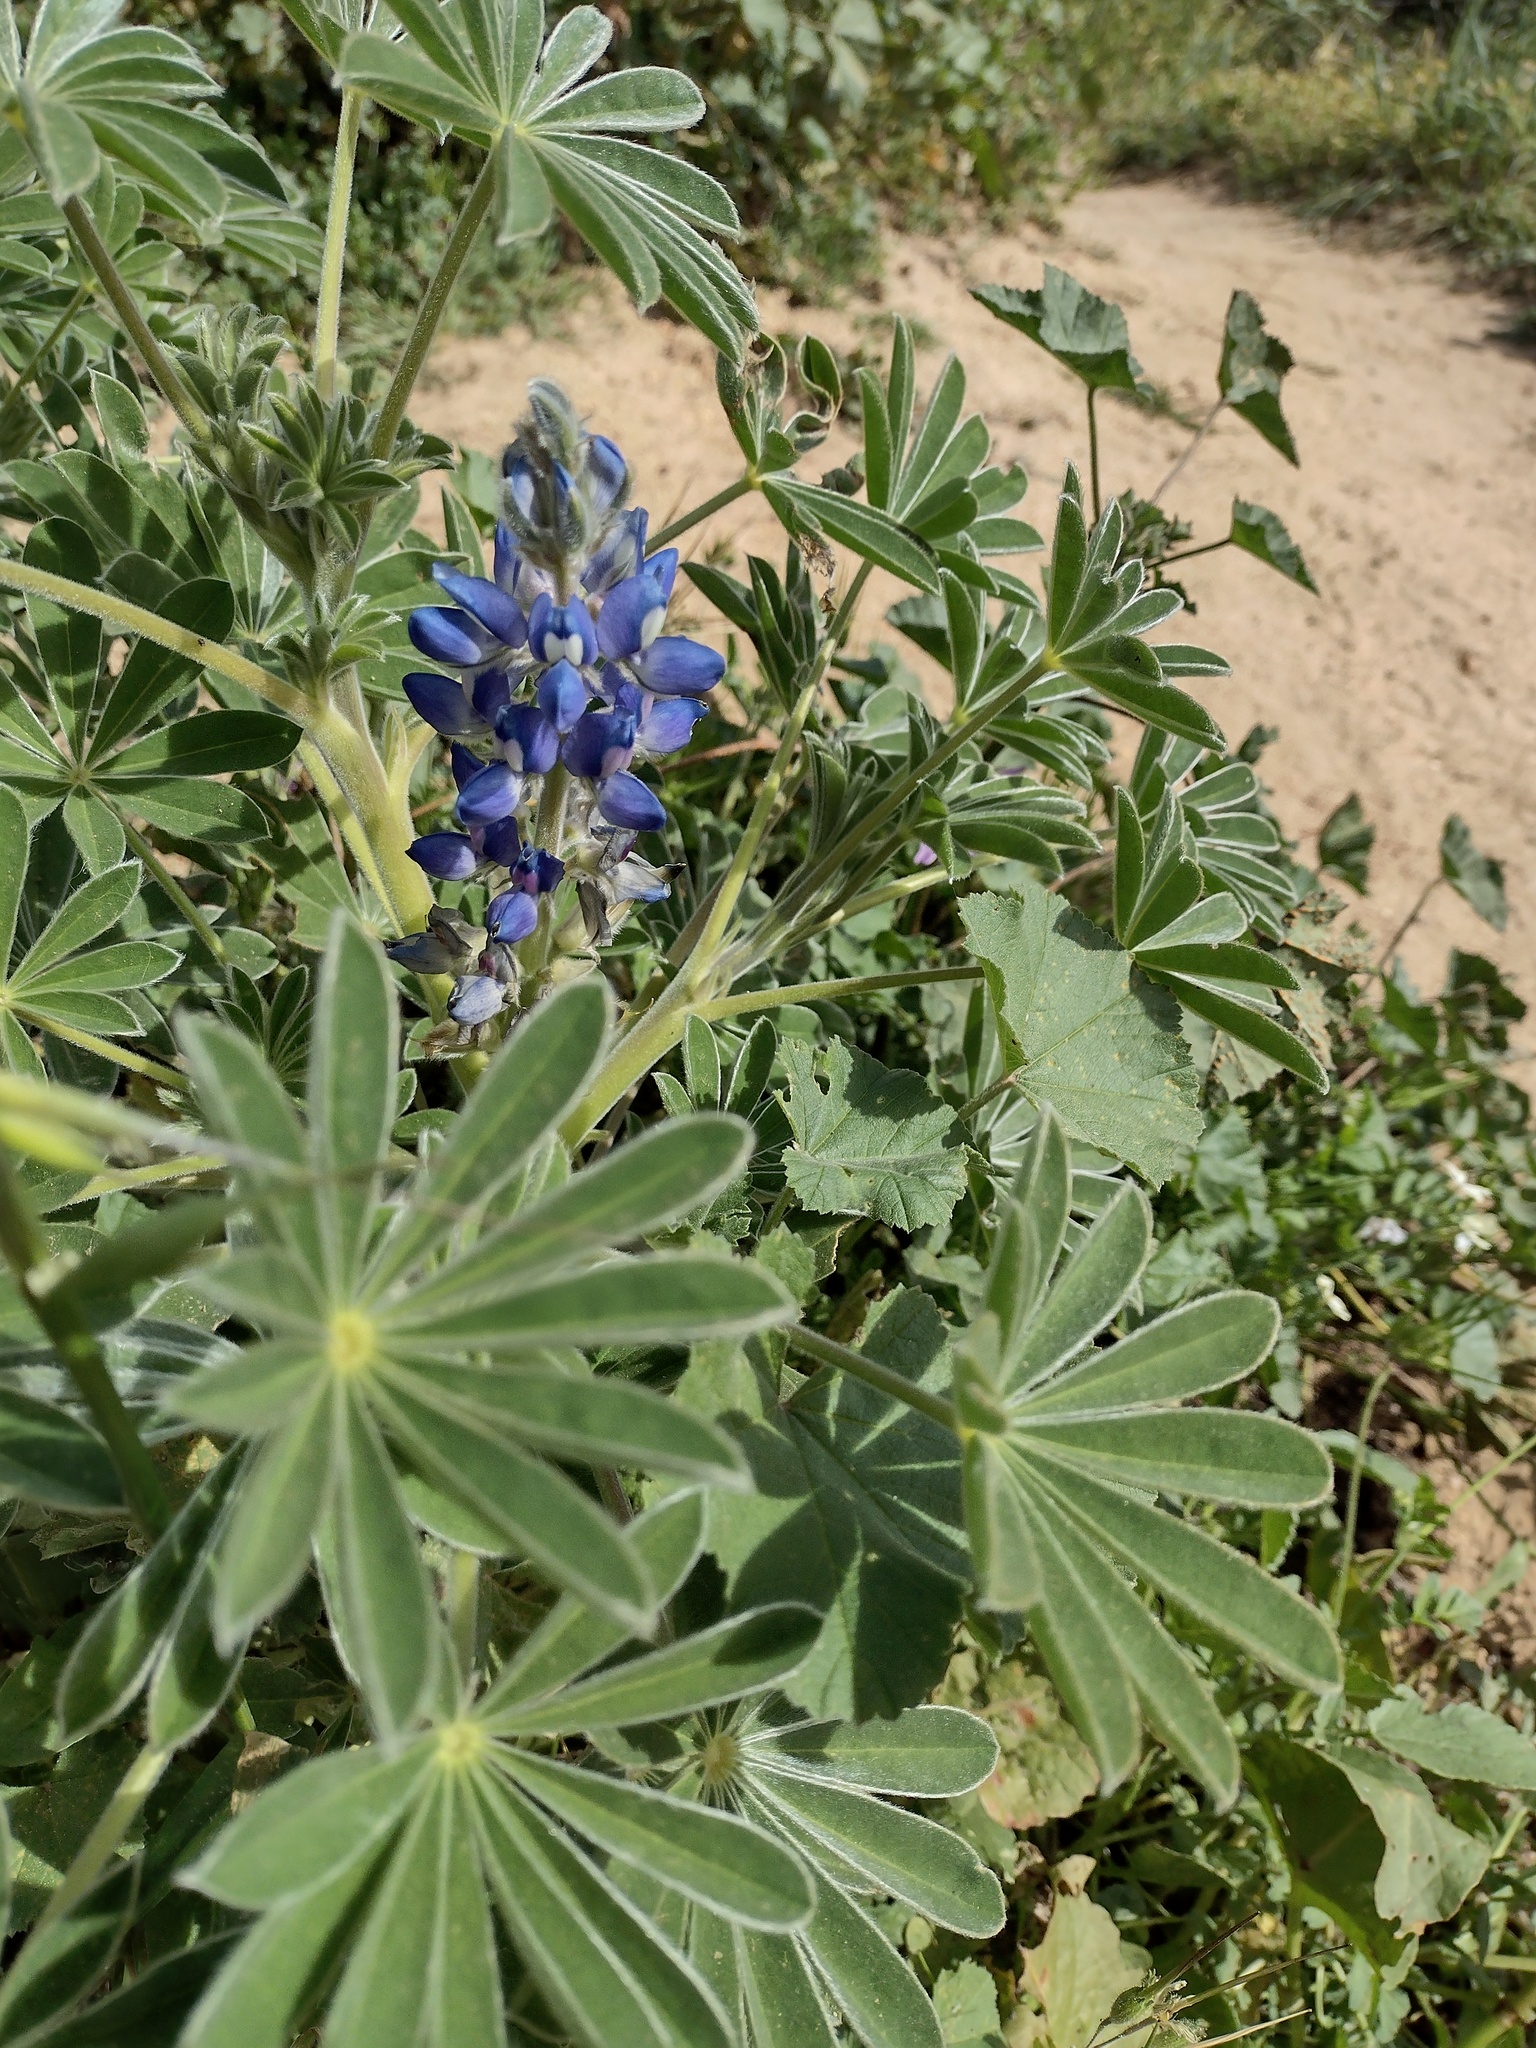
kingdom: Plantae
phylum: Tracheophyta
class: Magnoliopsida
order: Fabales
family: Fabaceae
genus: Lupinus
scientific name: Lupinus cosentinii
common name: Hairy blue lupin
